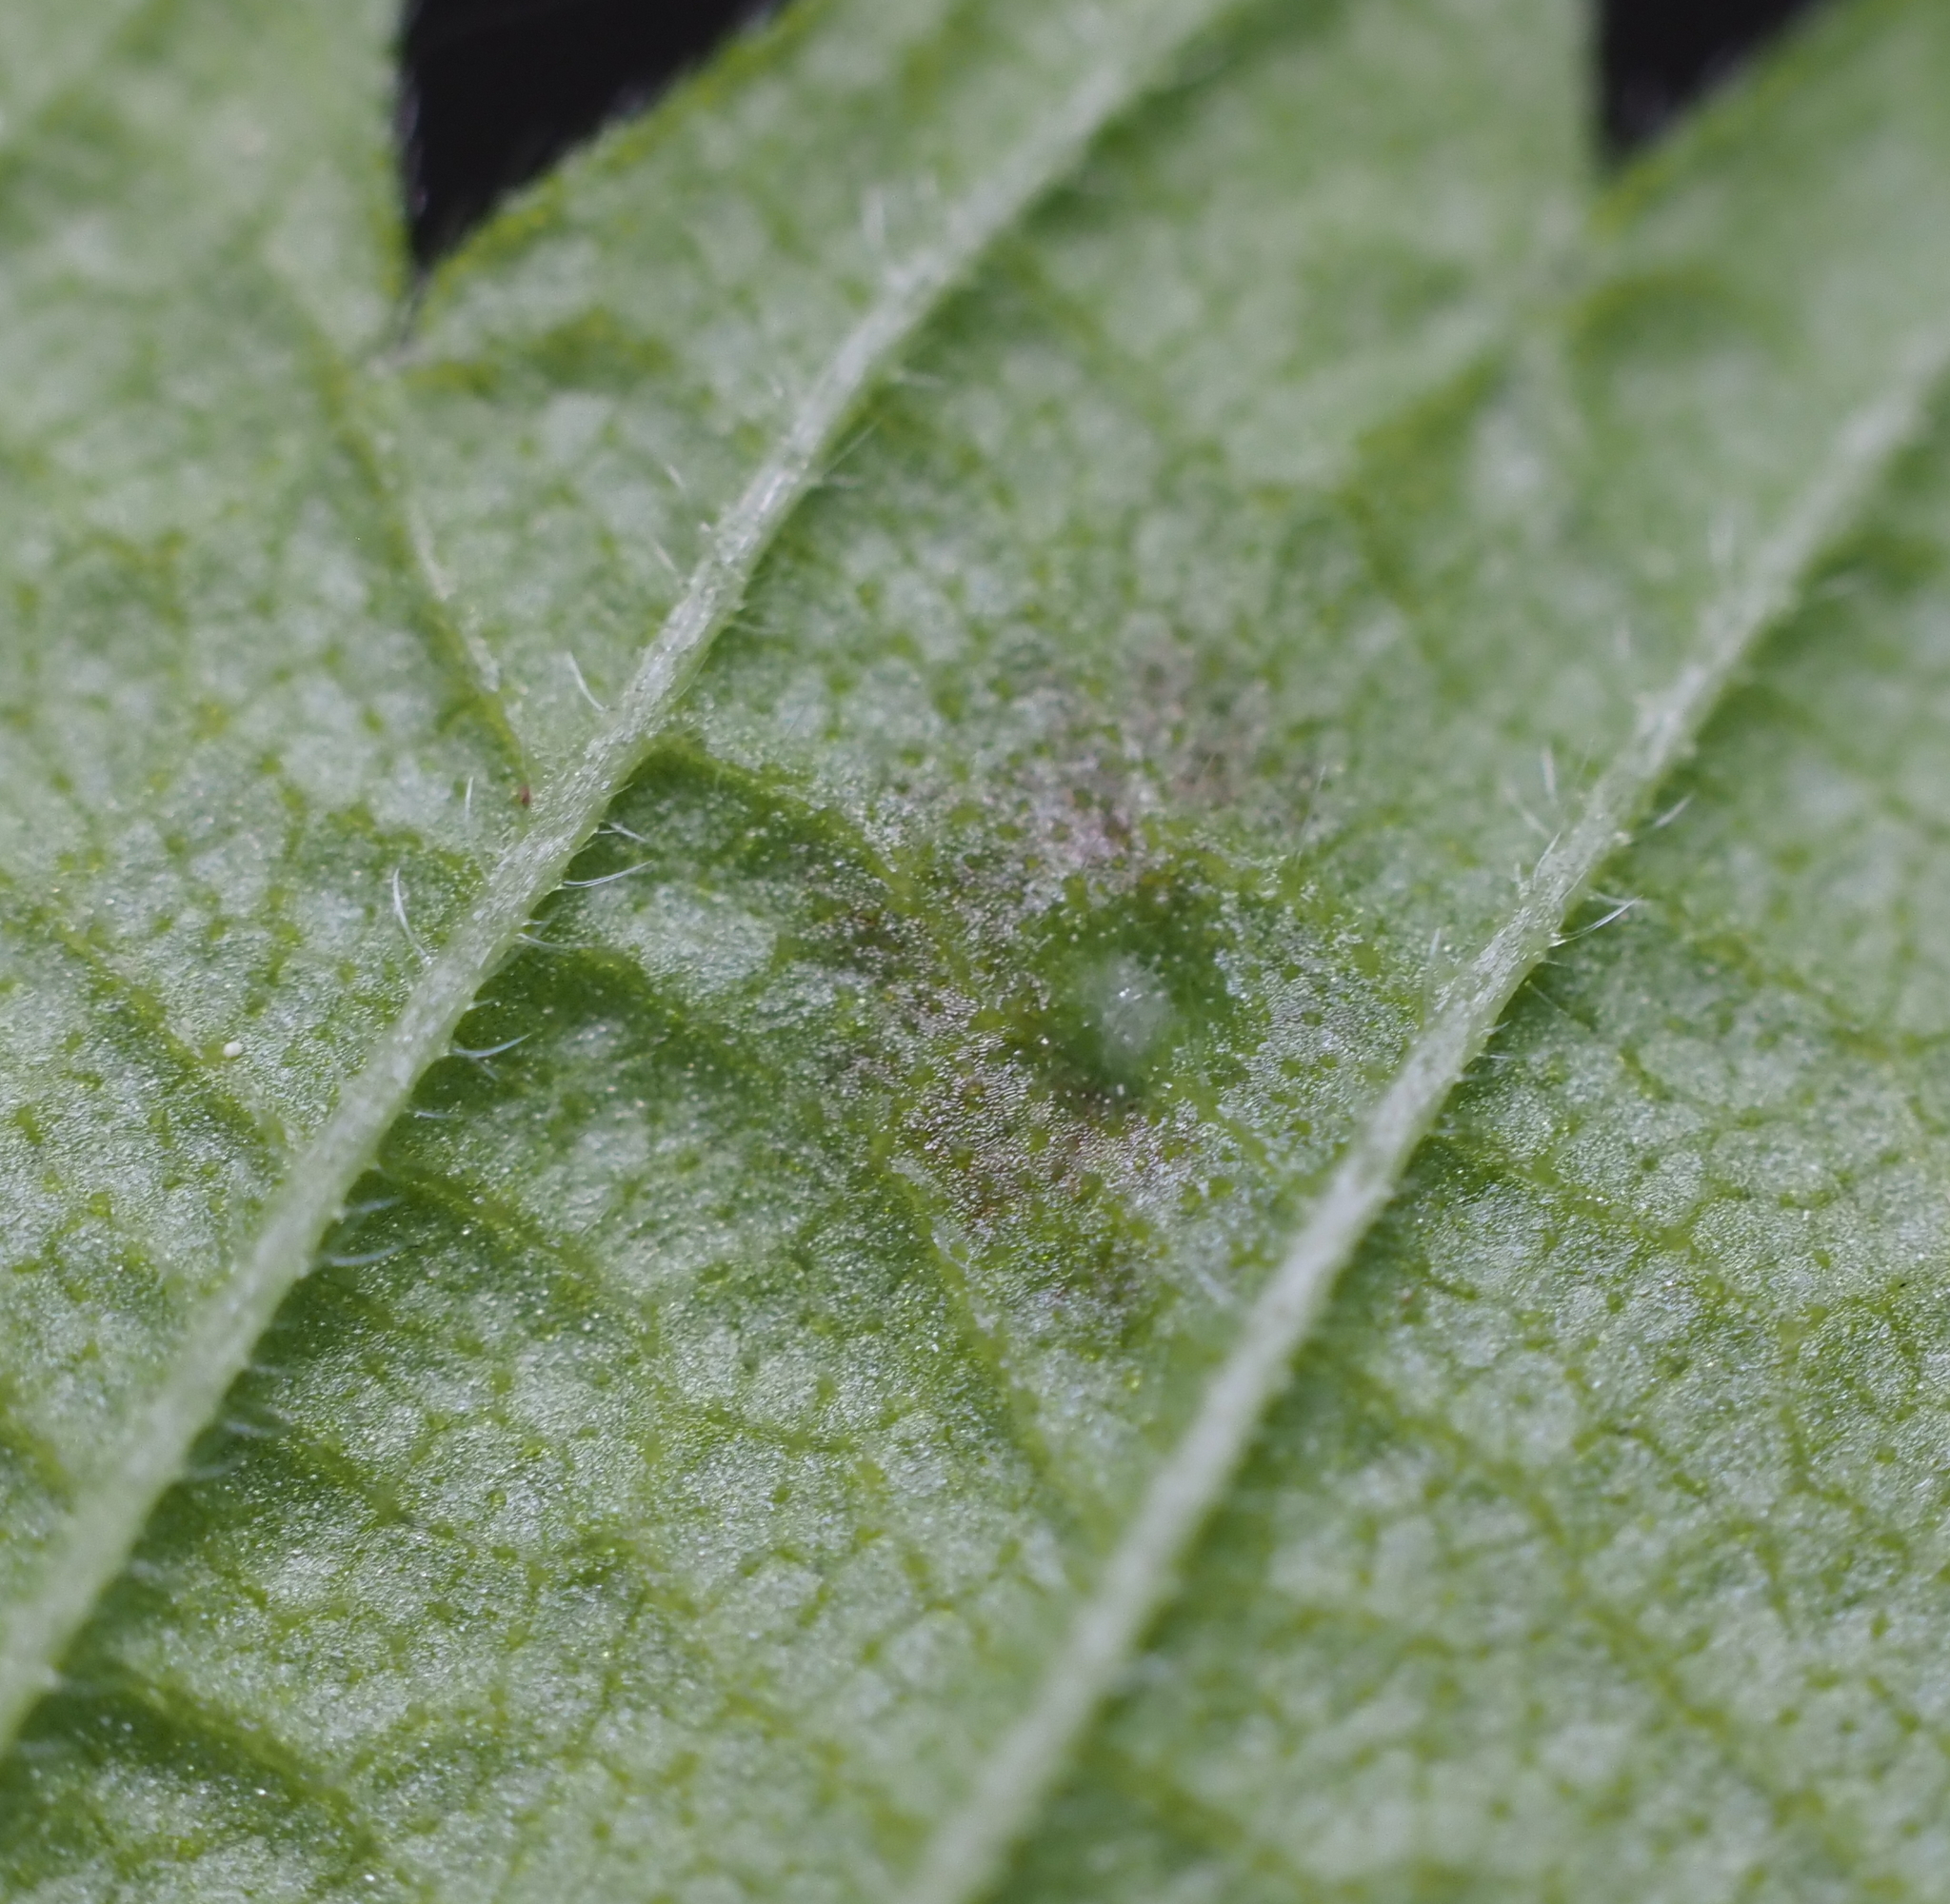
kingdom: Animalia
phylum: Arthropoda
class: Arachnida
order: Trombidiformes
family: Eriophyidae
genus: Aceria
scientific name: Aceria
